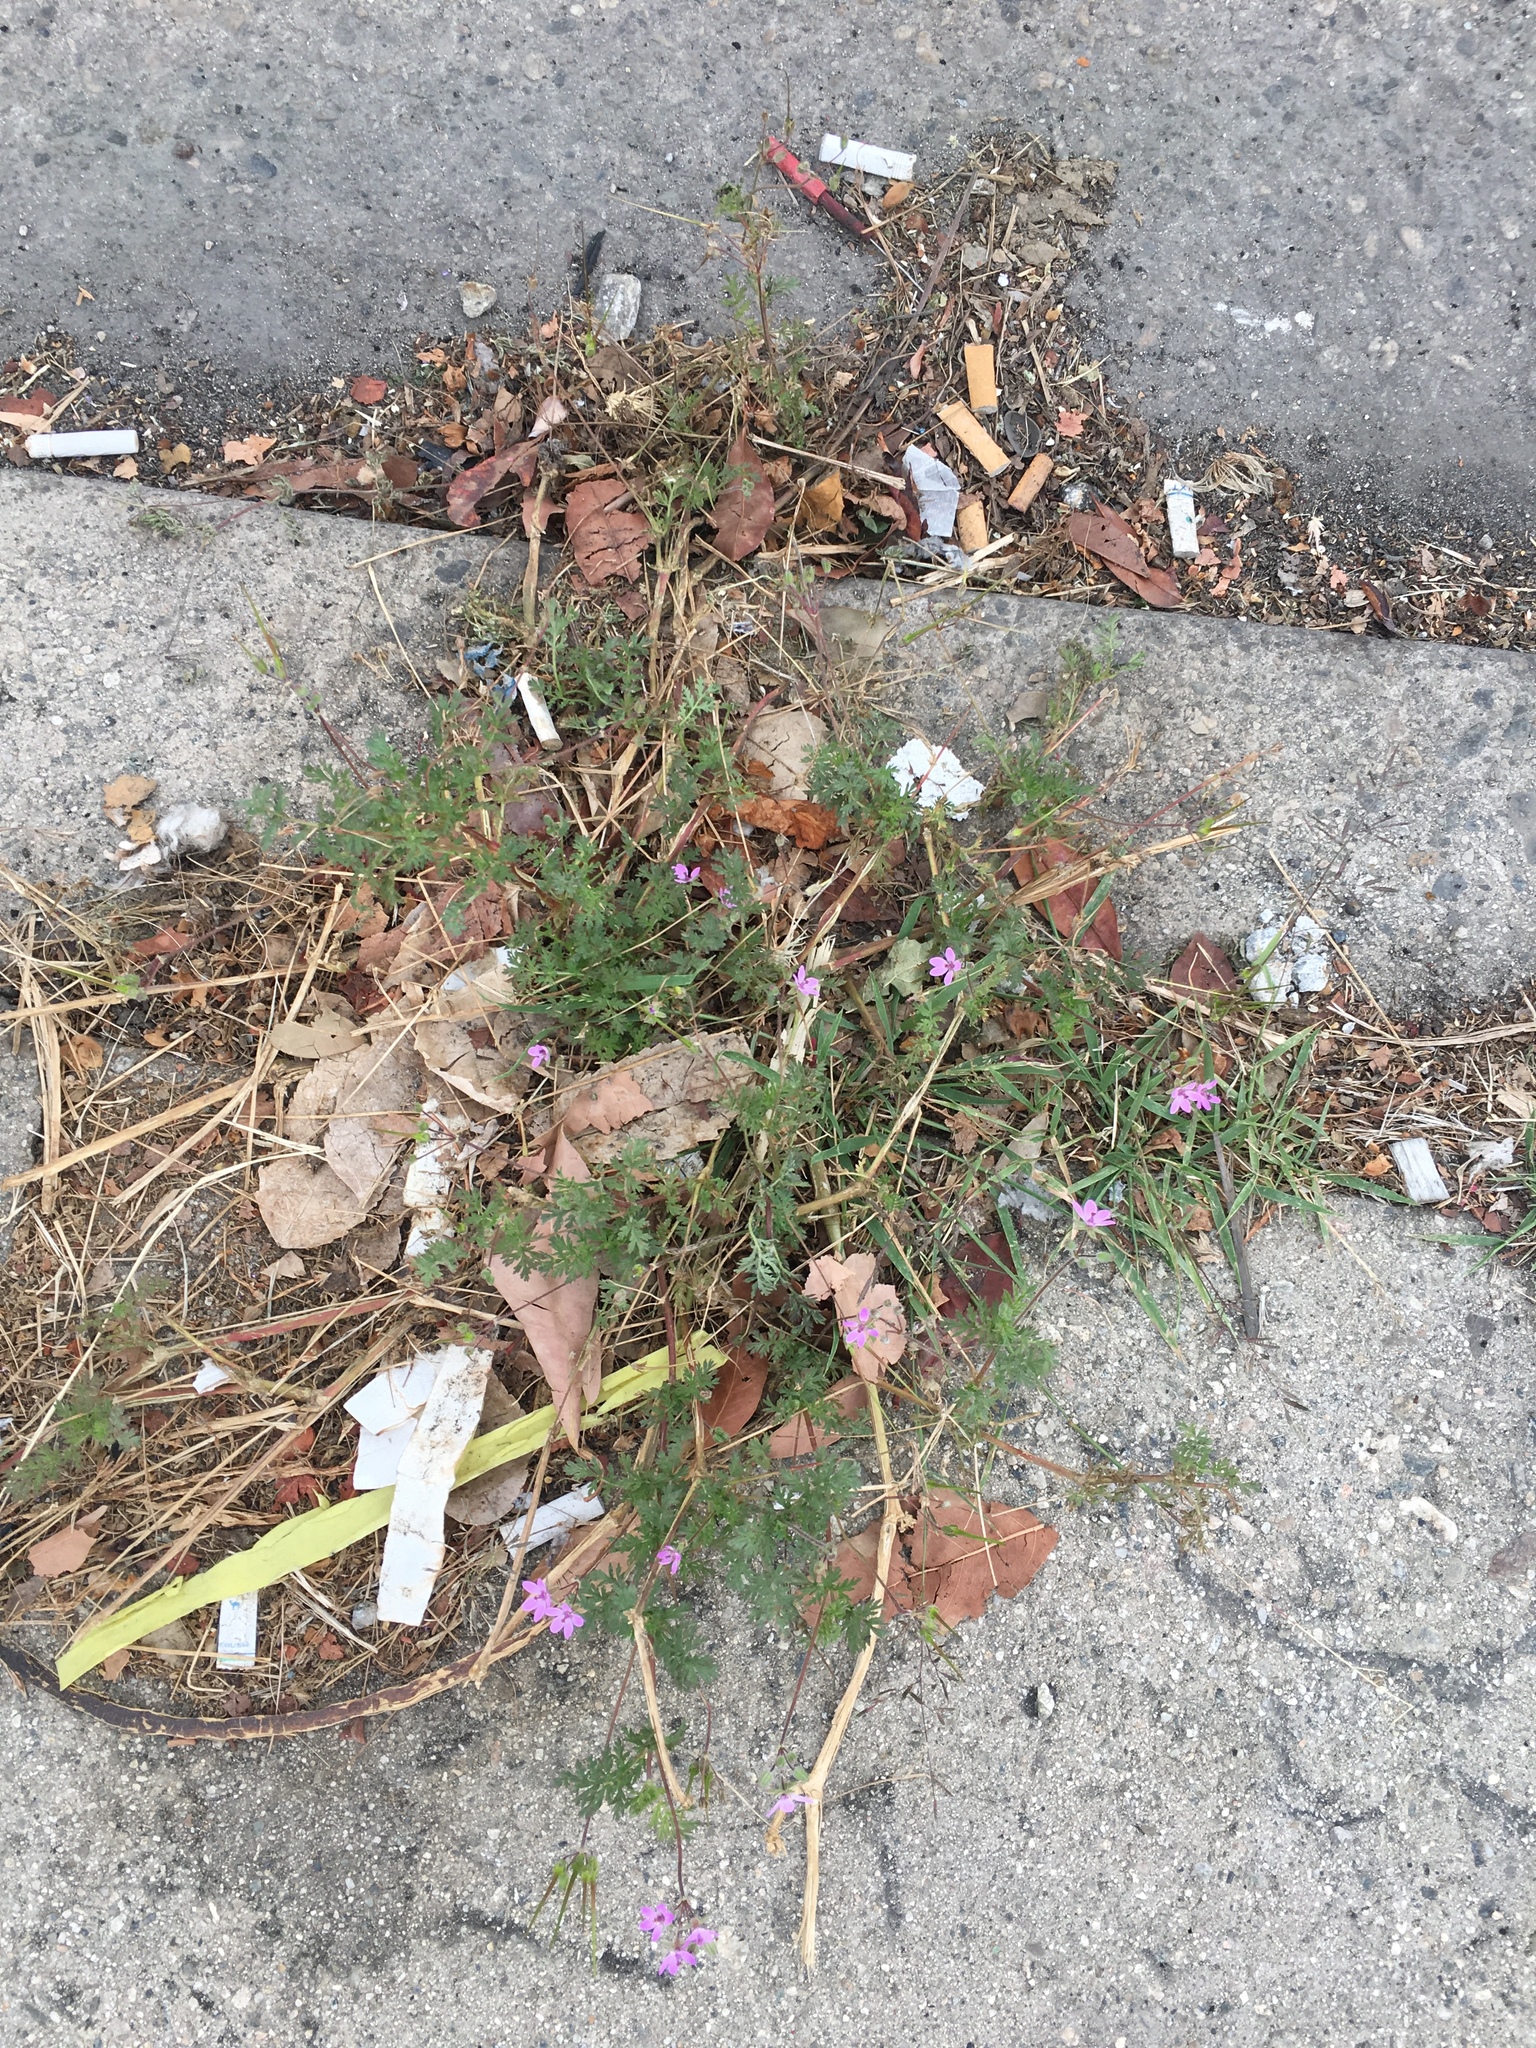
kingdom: Plantae
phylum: Tracheophyta
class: Magnoliopsida
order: Geraniales
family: Geraniaceae
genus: Erodium
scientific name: Erodium cicutarium
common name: Common stork's-bill
